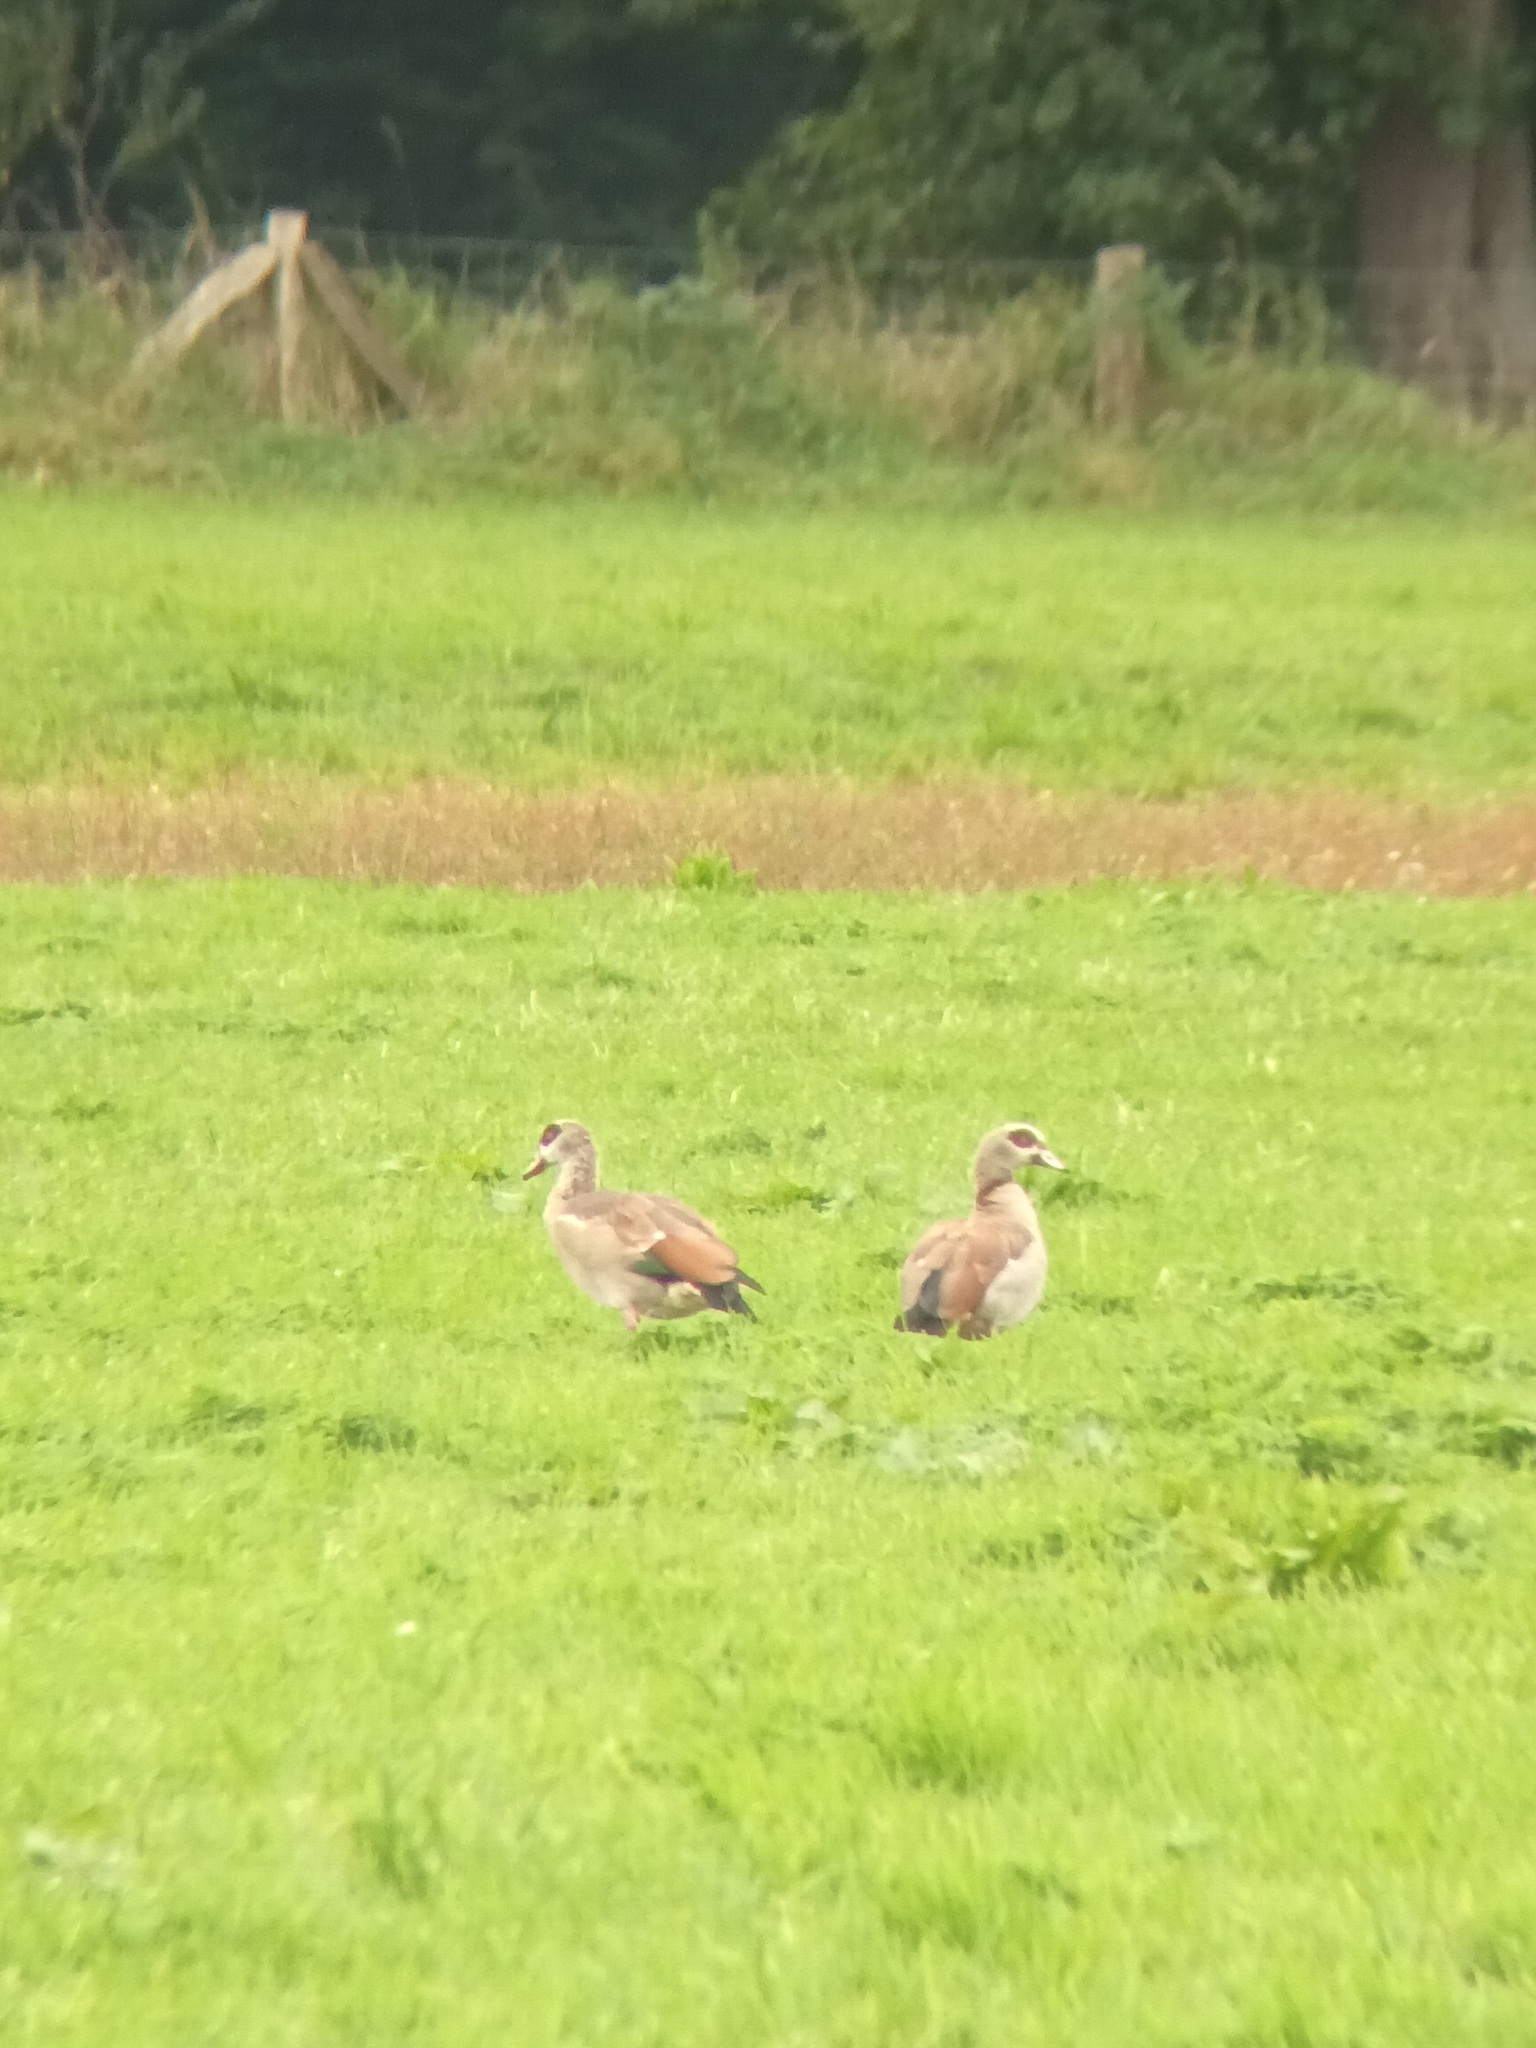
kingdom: Animalia
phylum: Chordata
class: Aves
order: Anseriformes
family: Anatidae
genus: Alopochen
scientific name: Alopochen aegyptiaca
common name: Egyptian goose
